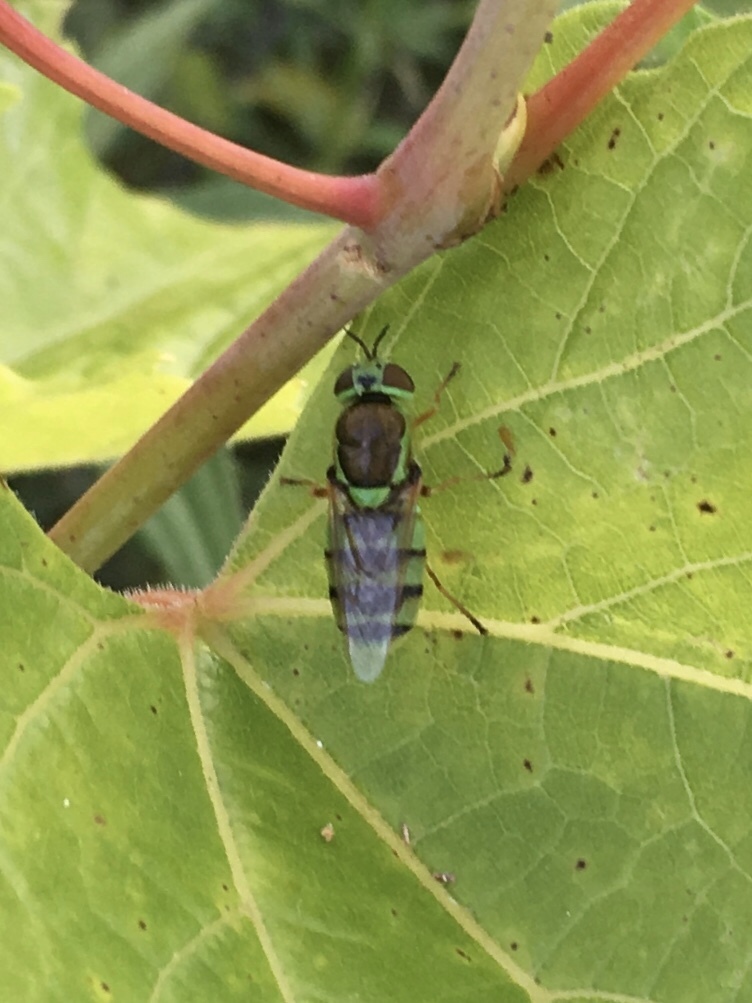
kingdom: Animalia
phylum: Arthropoda
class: Insecta
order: Diptera
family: Stratiomyidae
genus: Odontomyia
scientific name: Odontomyia cincta
